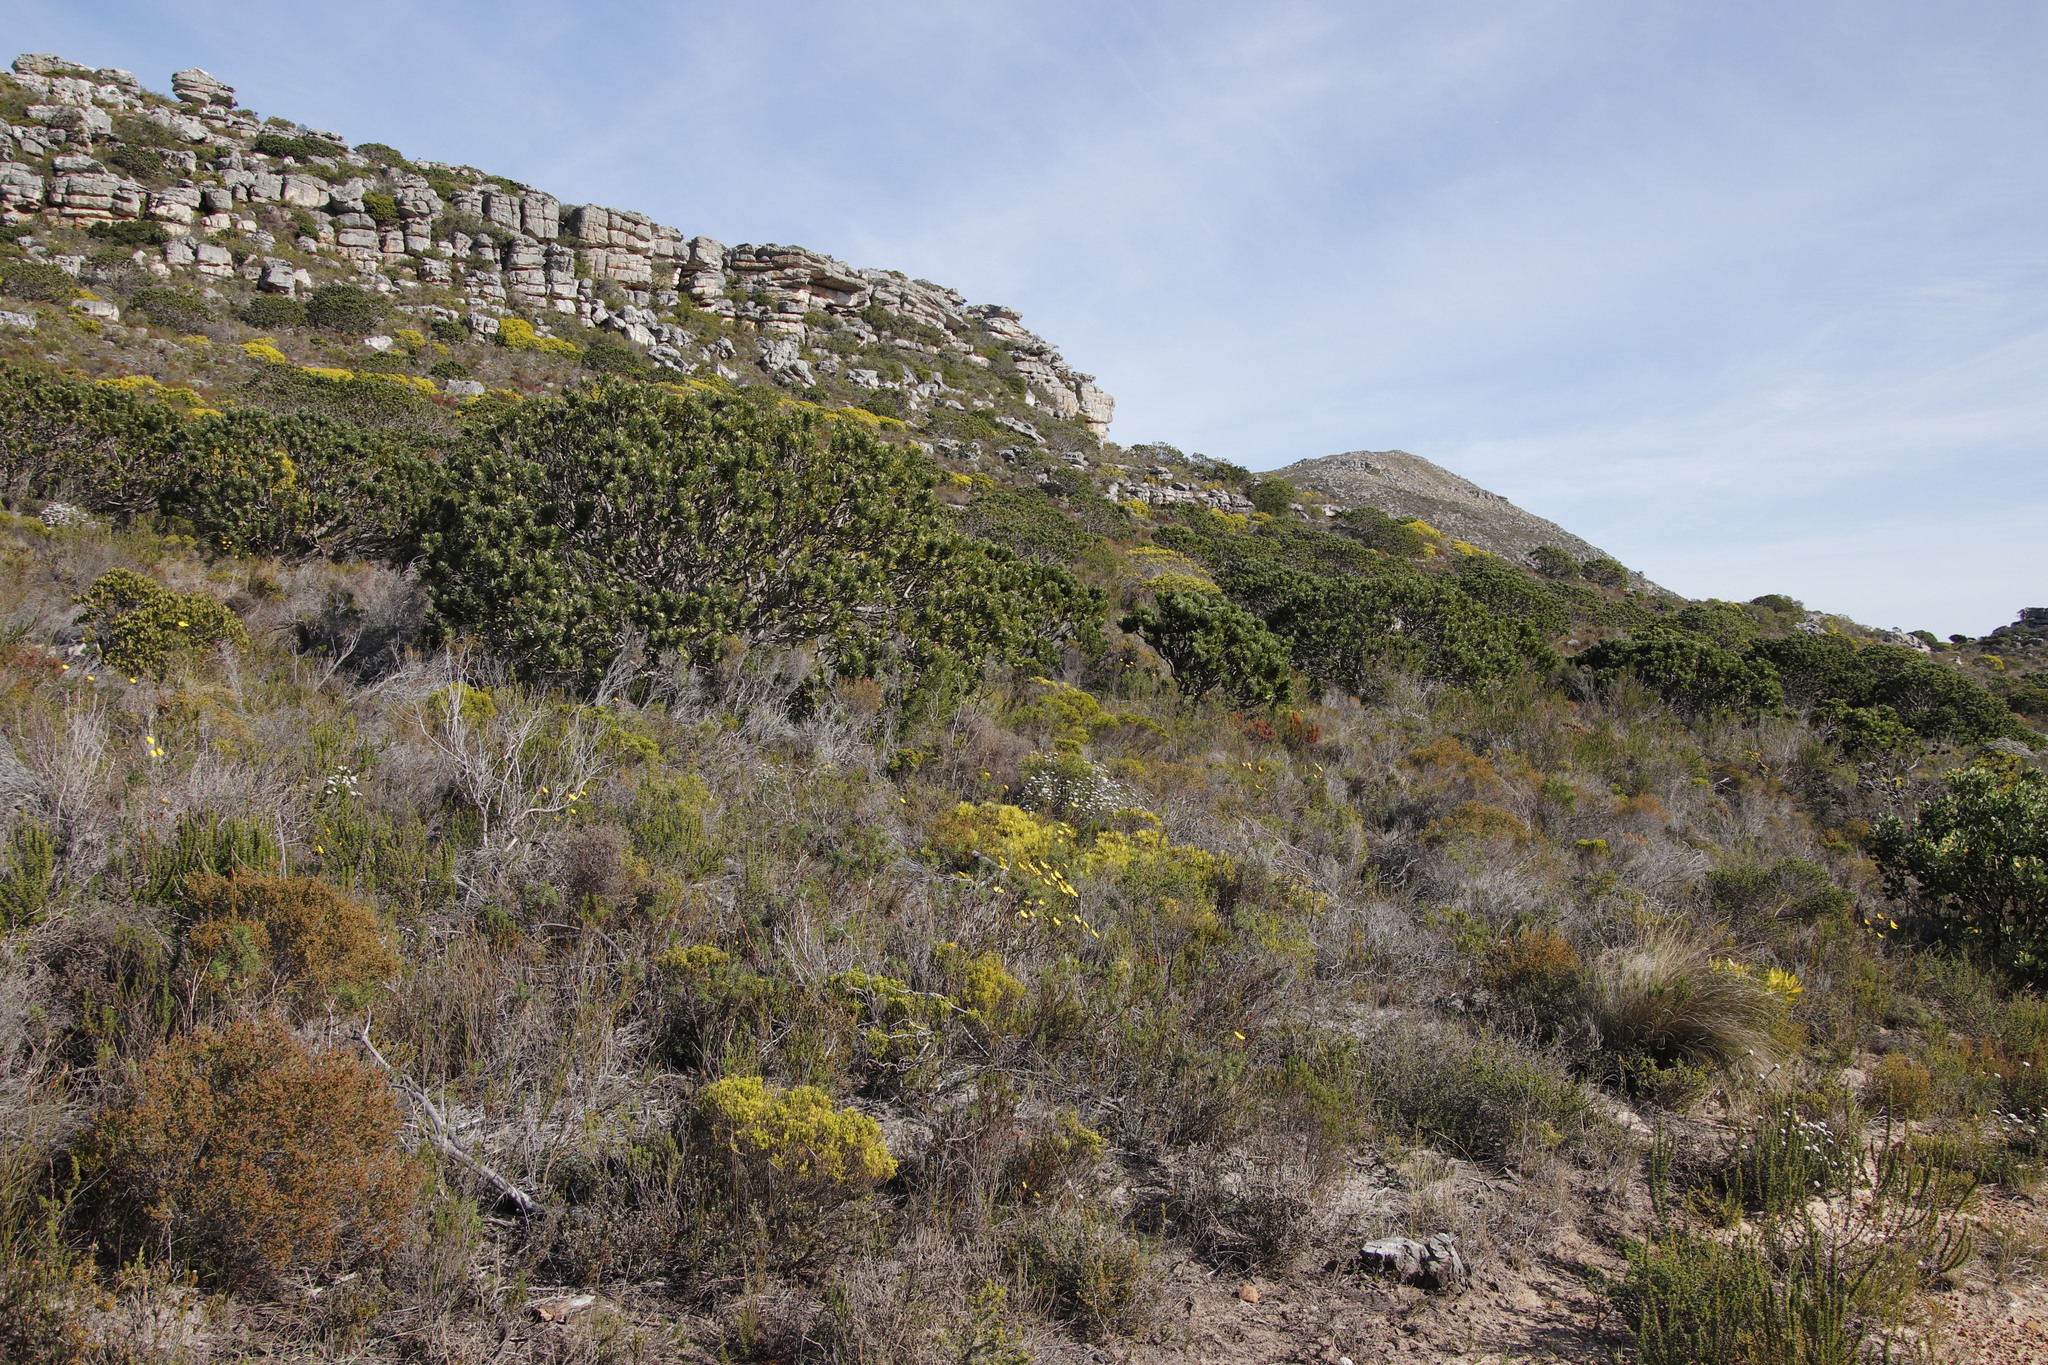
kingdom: Plantae
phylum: Tracheophyta
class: Magnoliopsida
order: Proteales
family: Proteaceae
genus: Leucadendron
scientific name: Leucadendron salignum
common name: Common sunshine conebush
